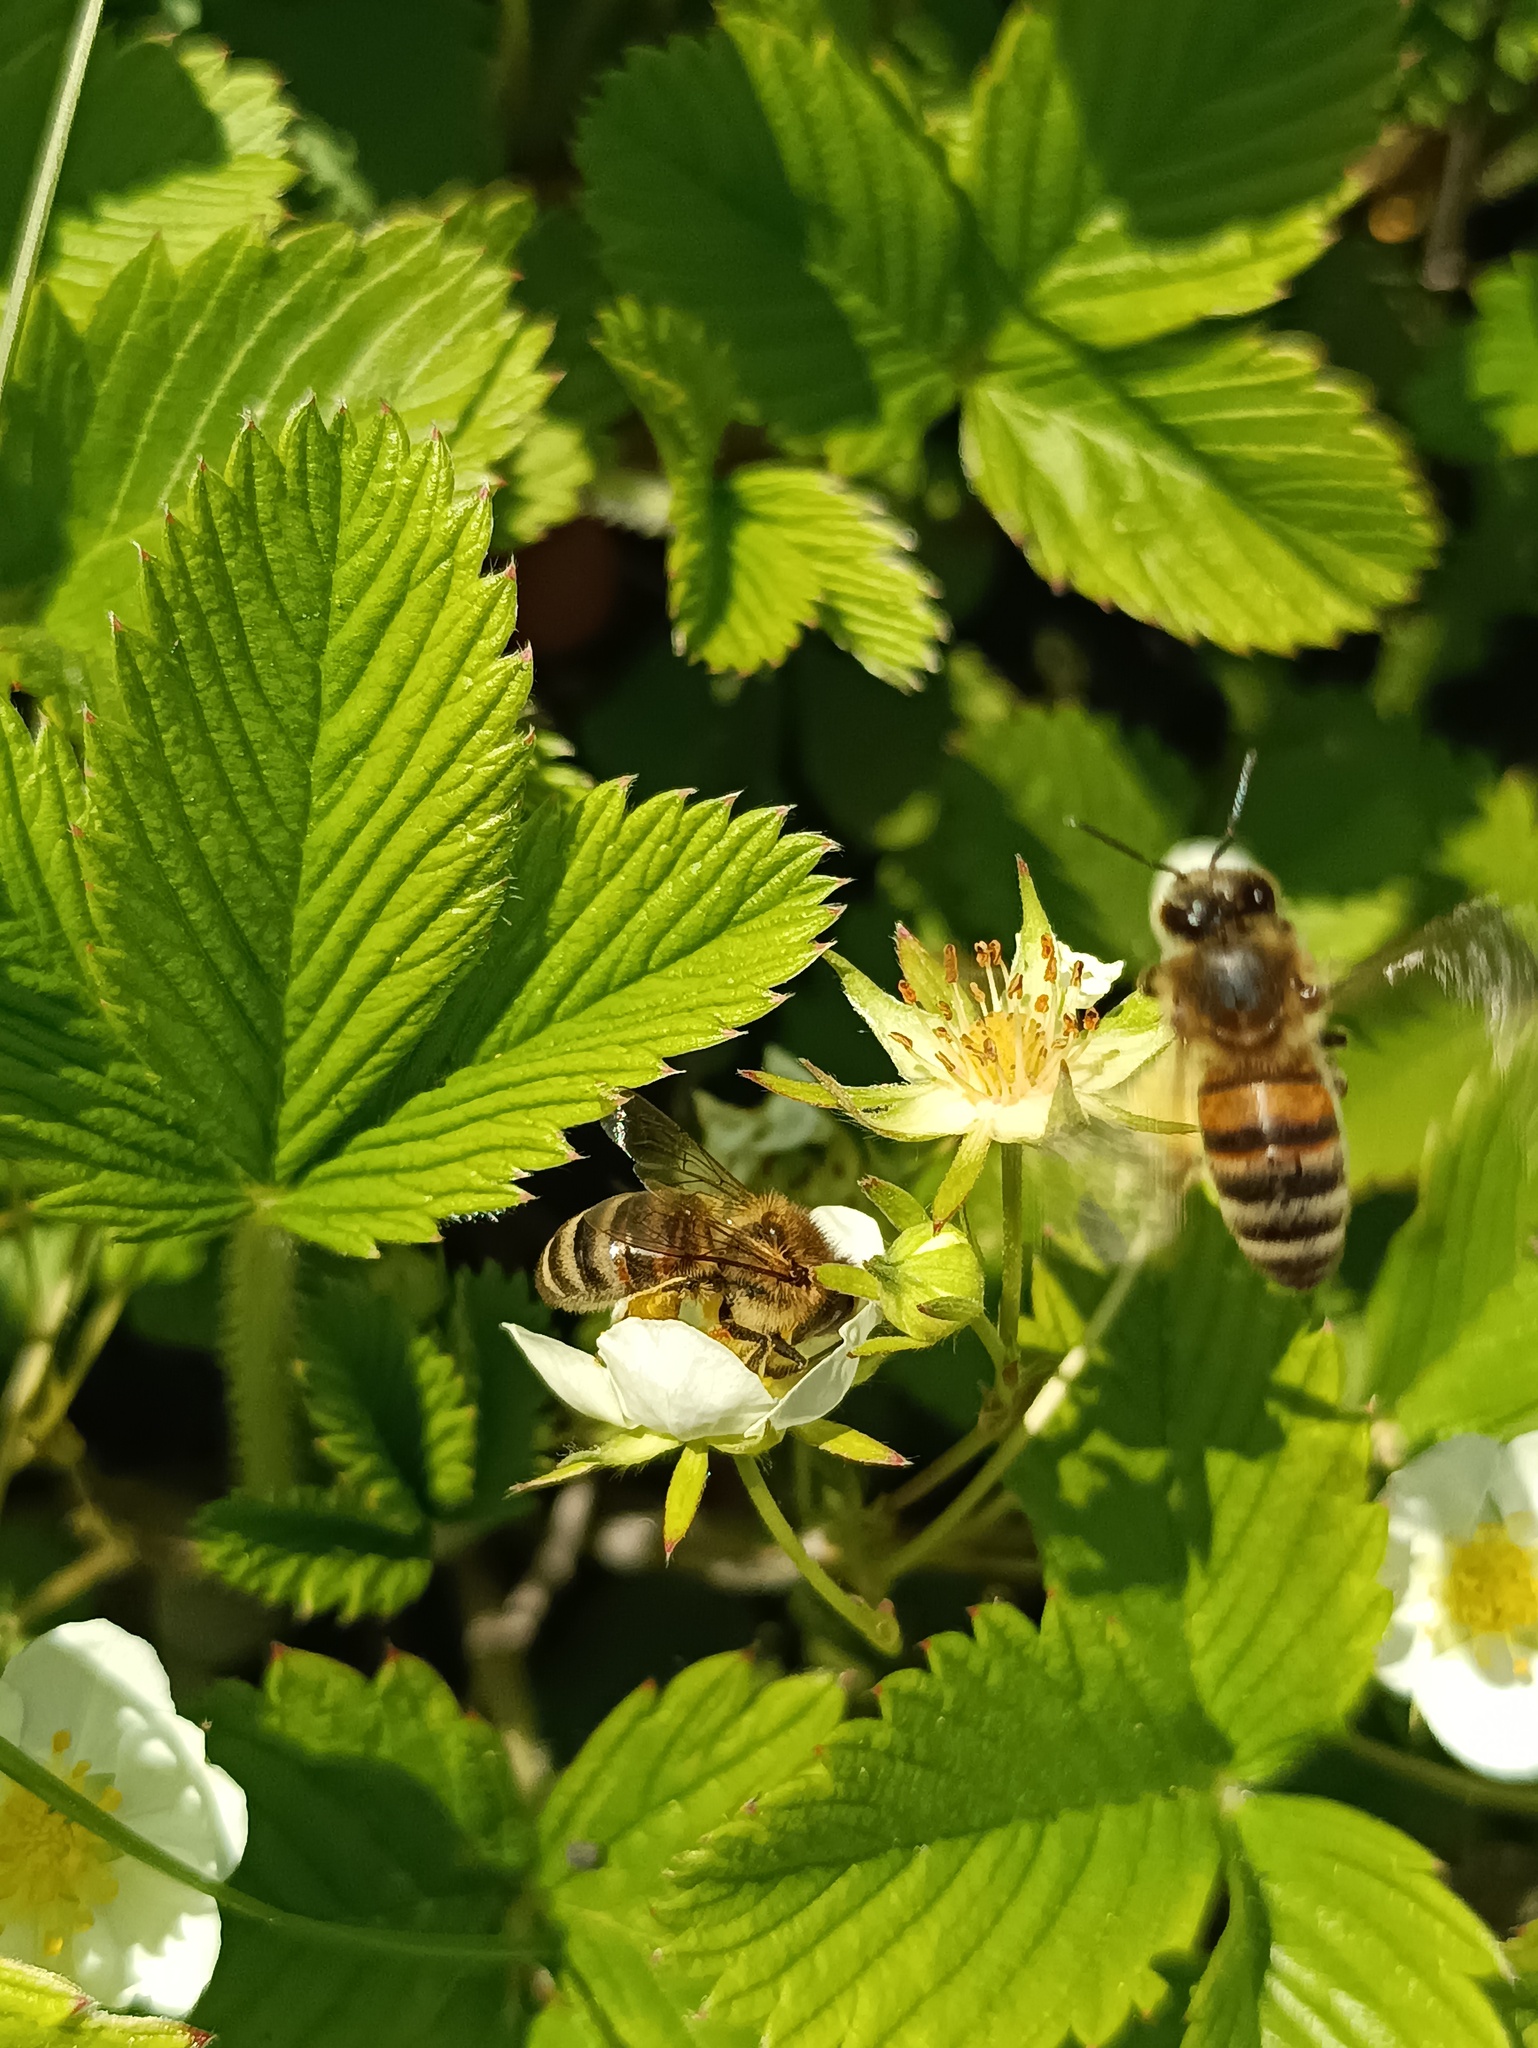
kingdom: Animalia
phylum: Arthropoda
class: Insecta
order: Hymenoptera
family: Apidae
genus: Apis
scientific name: Apis mellifera
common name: Honey bee
